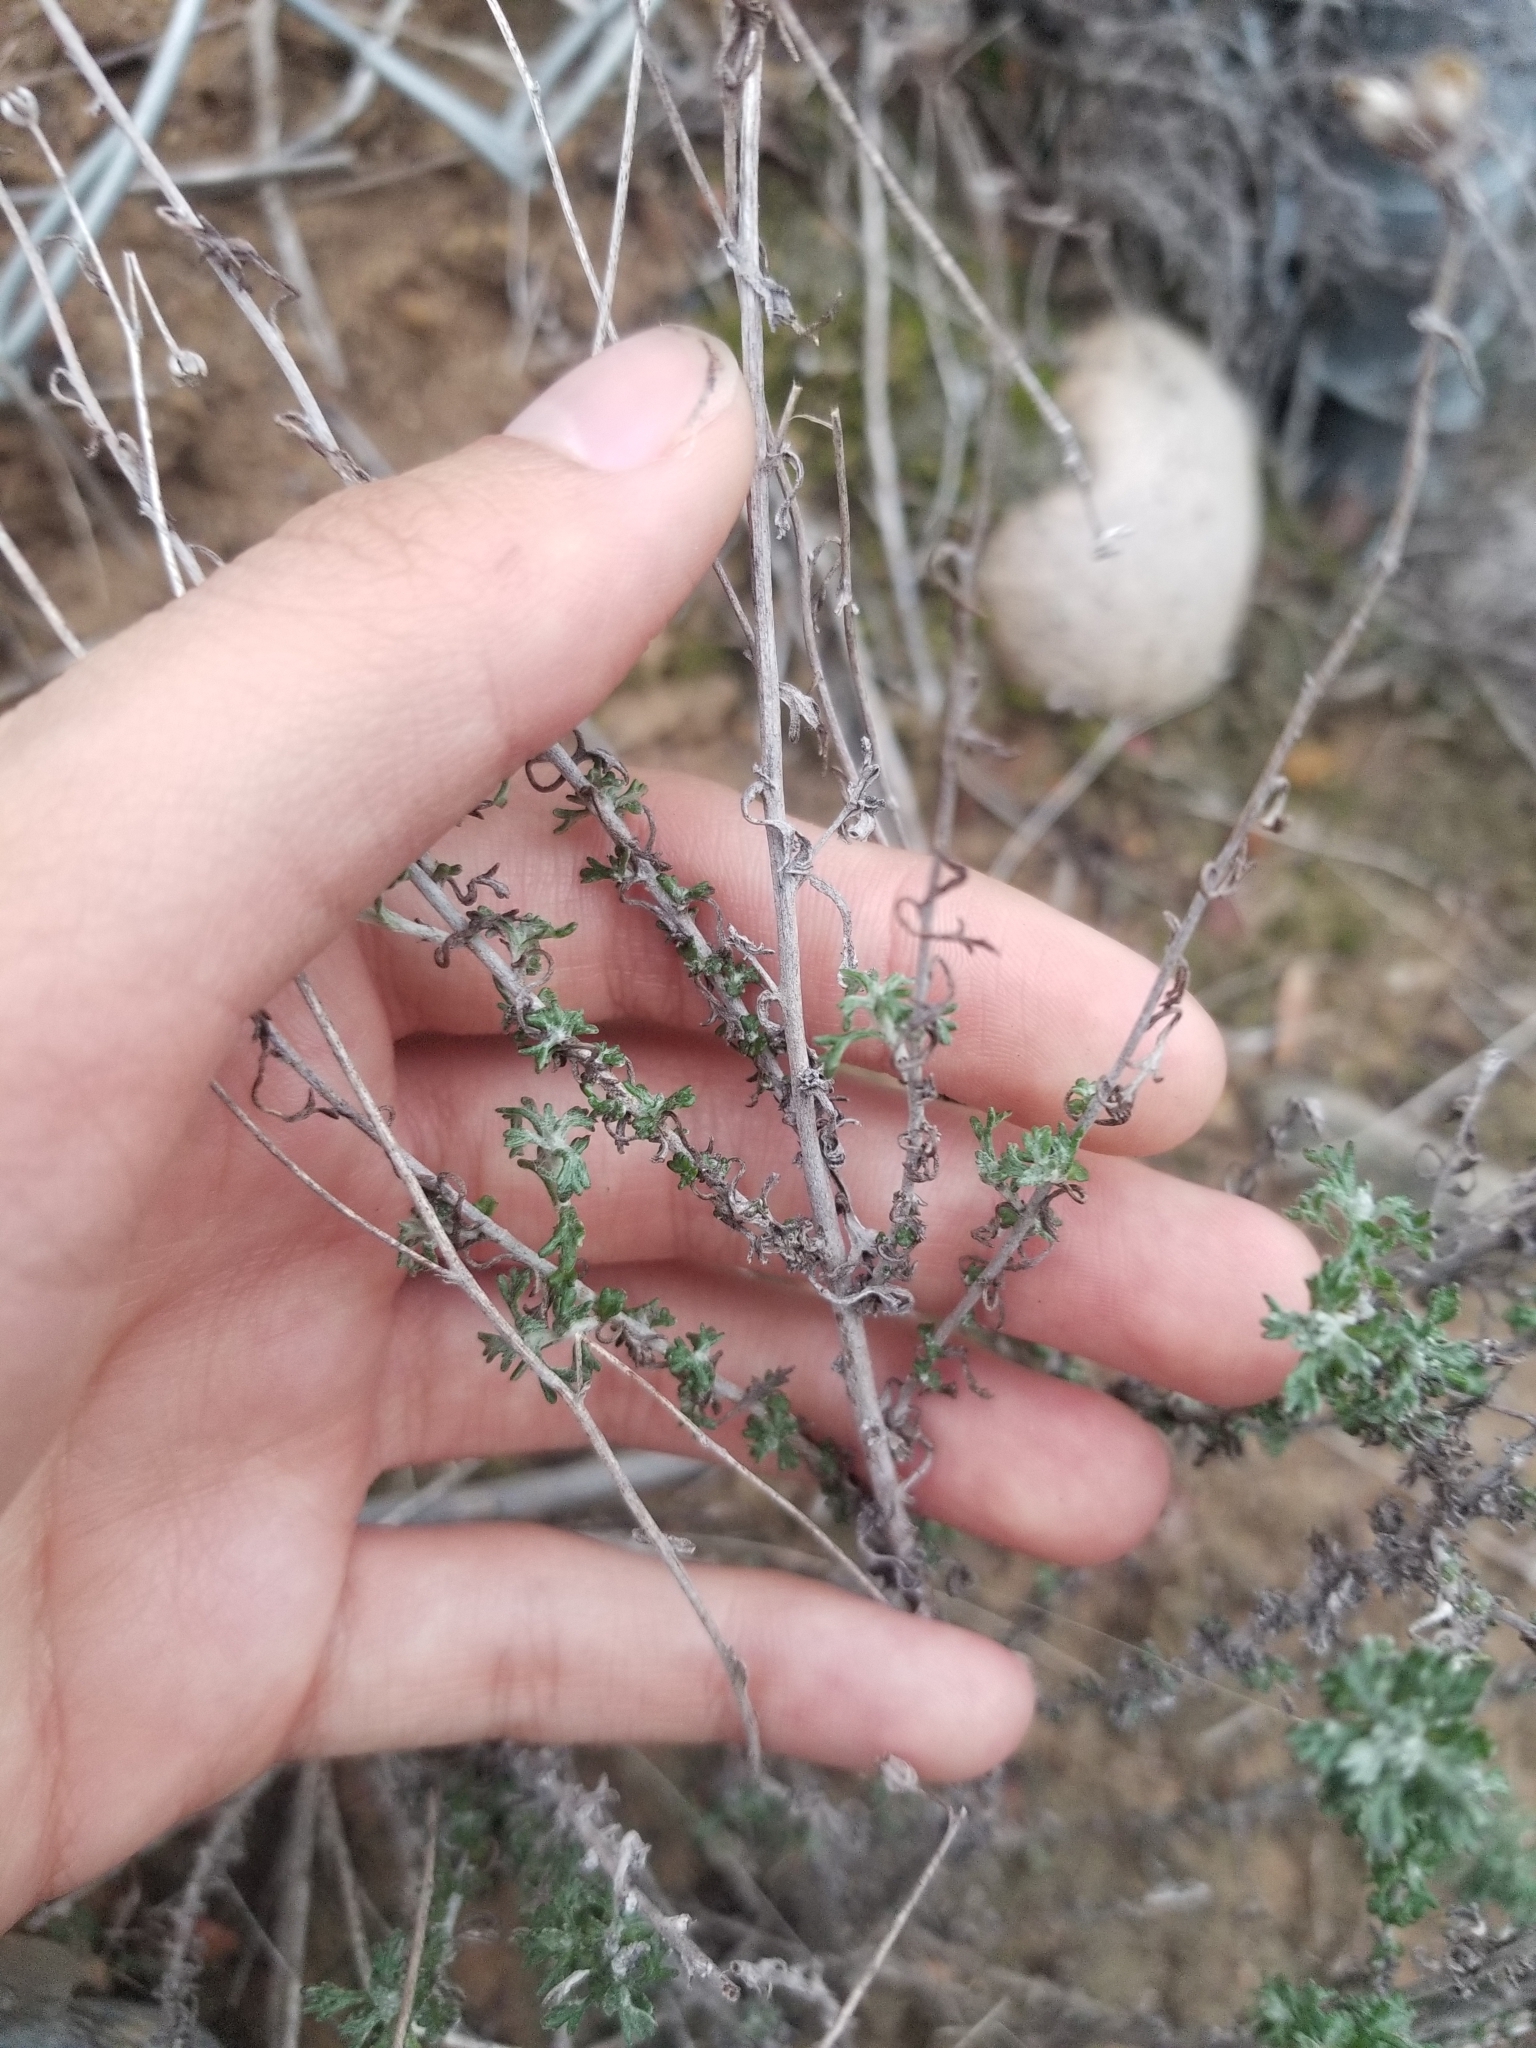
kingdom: Plantae
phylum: Tracheophyta
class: Magnoliopsida
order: Asterales
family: Asteraceae
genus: Eriophyllum
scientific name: Eriophyllum confertiflorum
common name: Golden-yarrow
